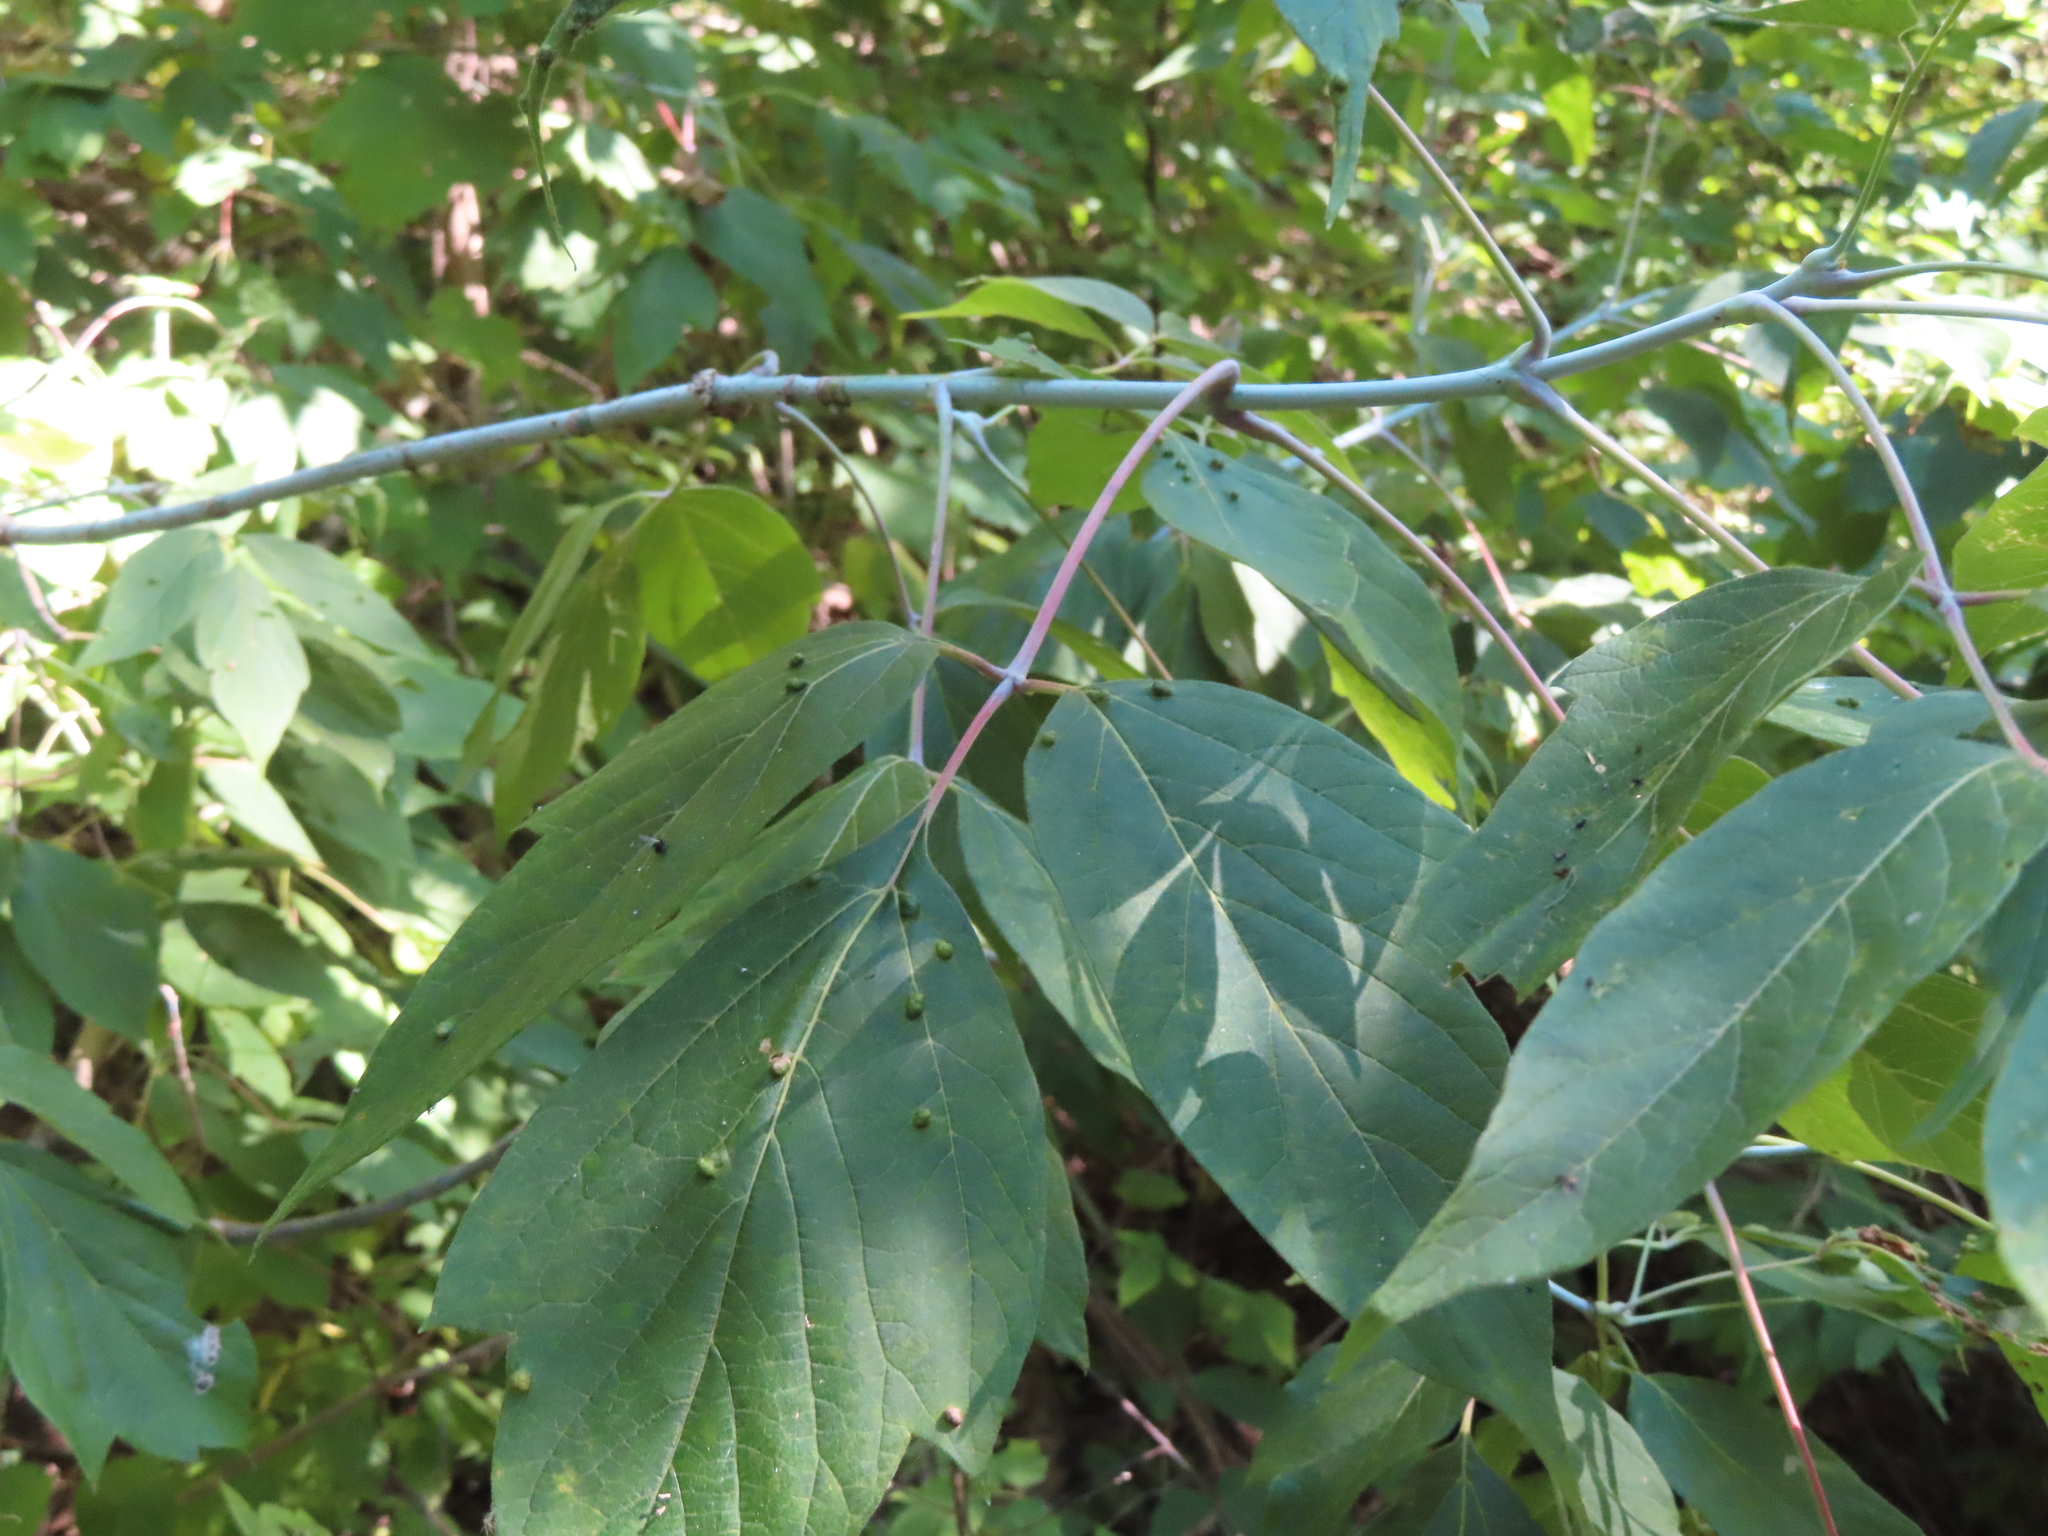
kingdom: Plantae
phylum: Tracheophyta
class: Magnoliopsida
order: Sapindales
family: Sapindaceae
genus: Acer
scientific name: Acer negundo
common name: Ashleaf maple
